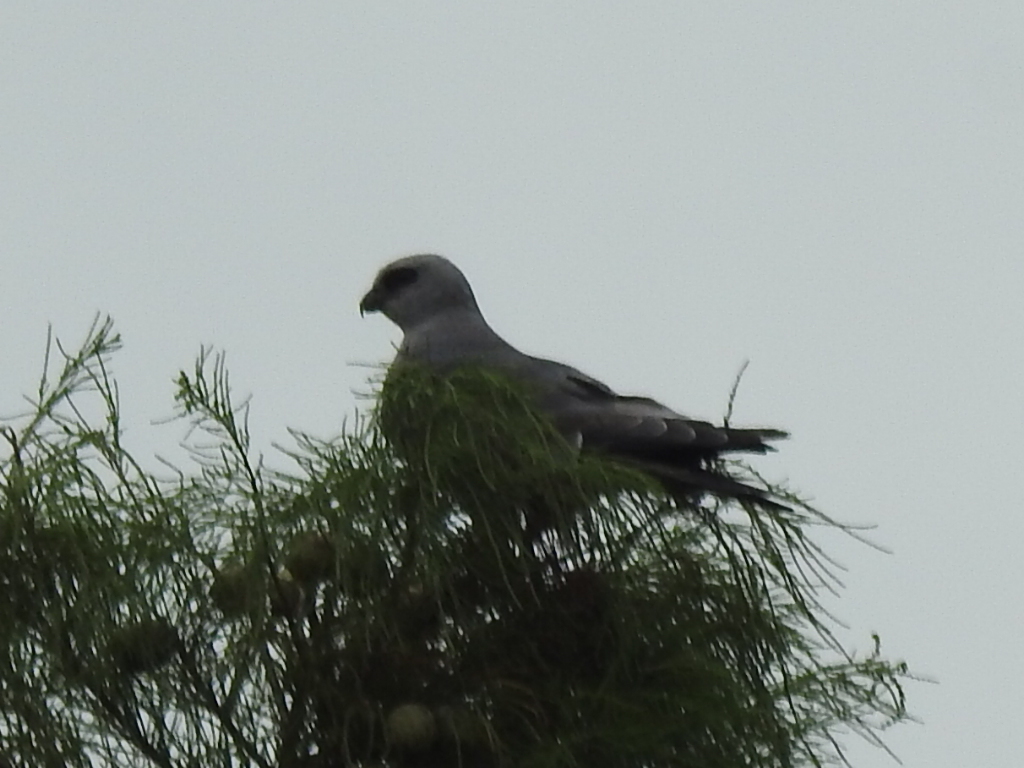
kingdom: Animalia
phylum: Chordata
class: Aves
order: Accipitriformes
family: Accipitridae
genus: Ictinia
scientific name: Ictinia mississippiensis
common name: Mississippi kite
